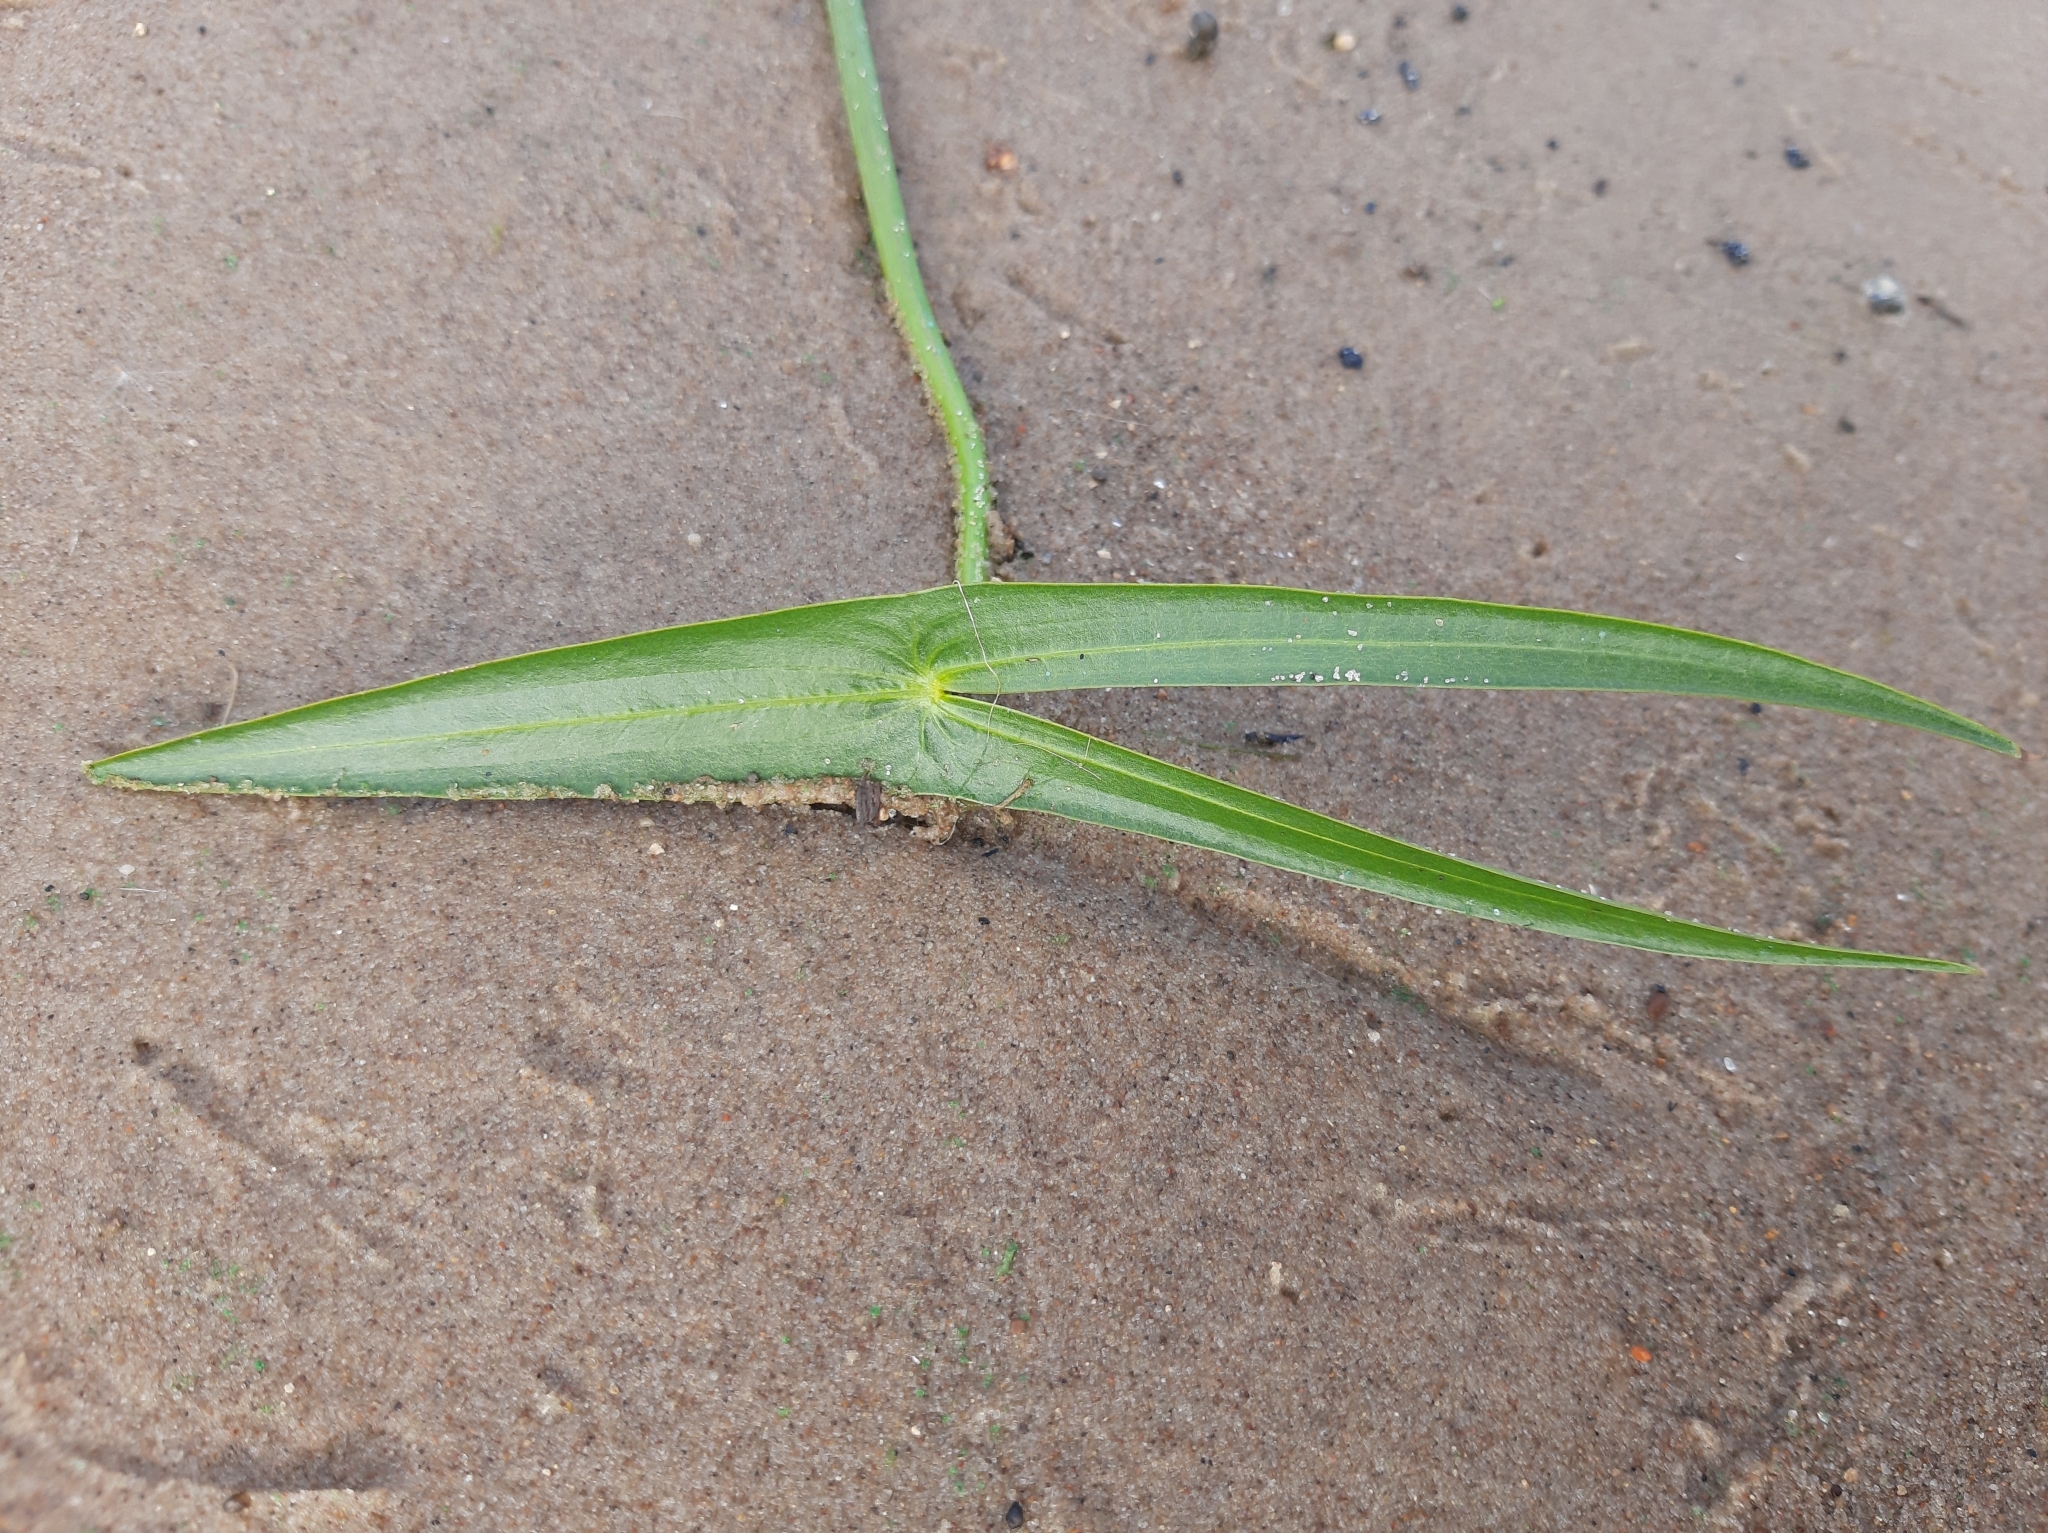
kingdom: Plantae
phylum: Tracheophyta
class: Liliopsida
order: Alismatales
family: Alismataceae
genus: Sagittaria
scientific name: Sagittaria sagittifolia
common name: Arrowhead
